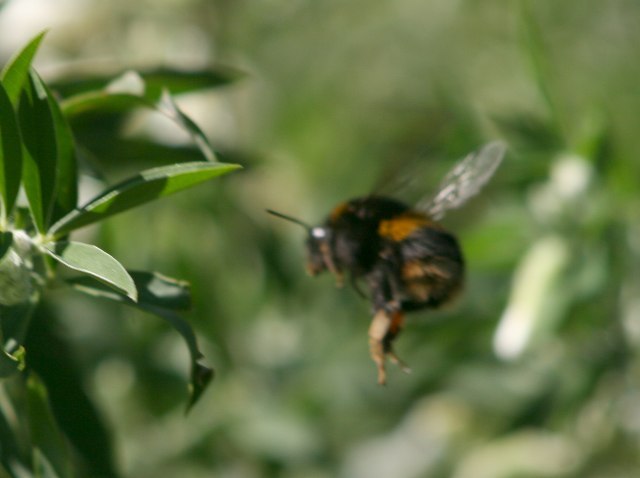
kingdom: Animalia
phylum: Arthropoda
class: Insecta
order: Hymenoptera
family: Apidae
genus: Bombus
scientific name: Bombus terrestris
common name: Buff-tailed bumblebee
